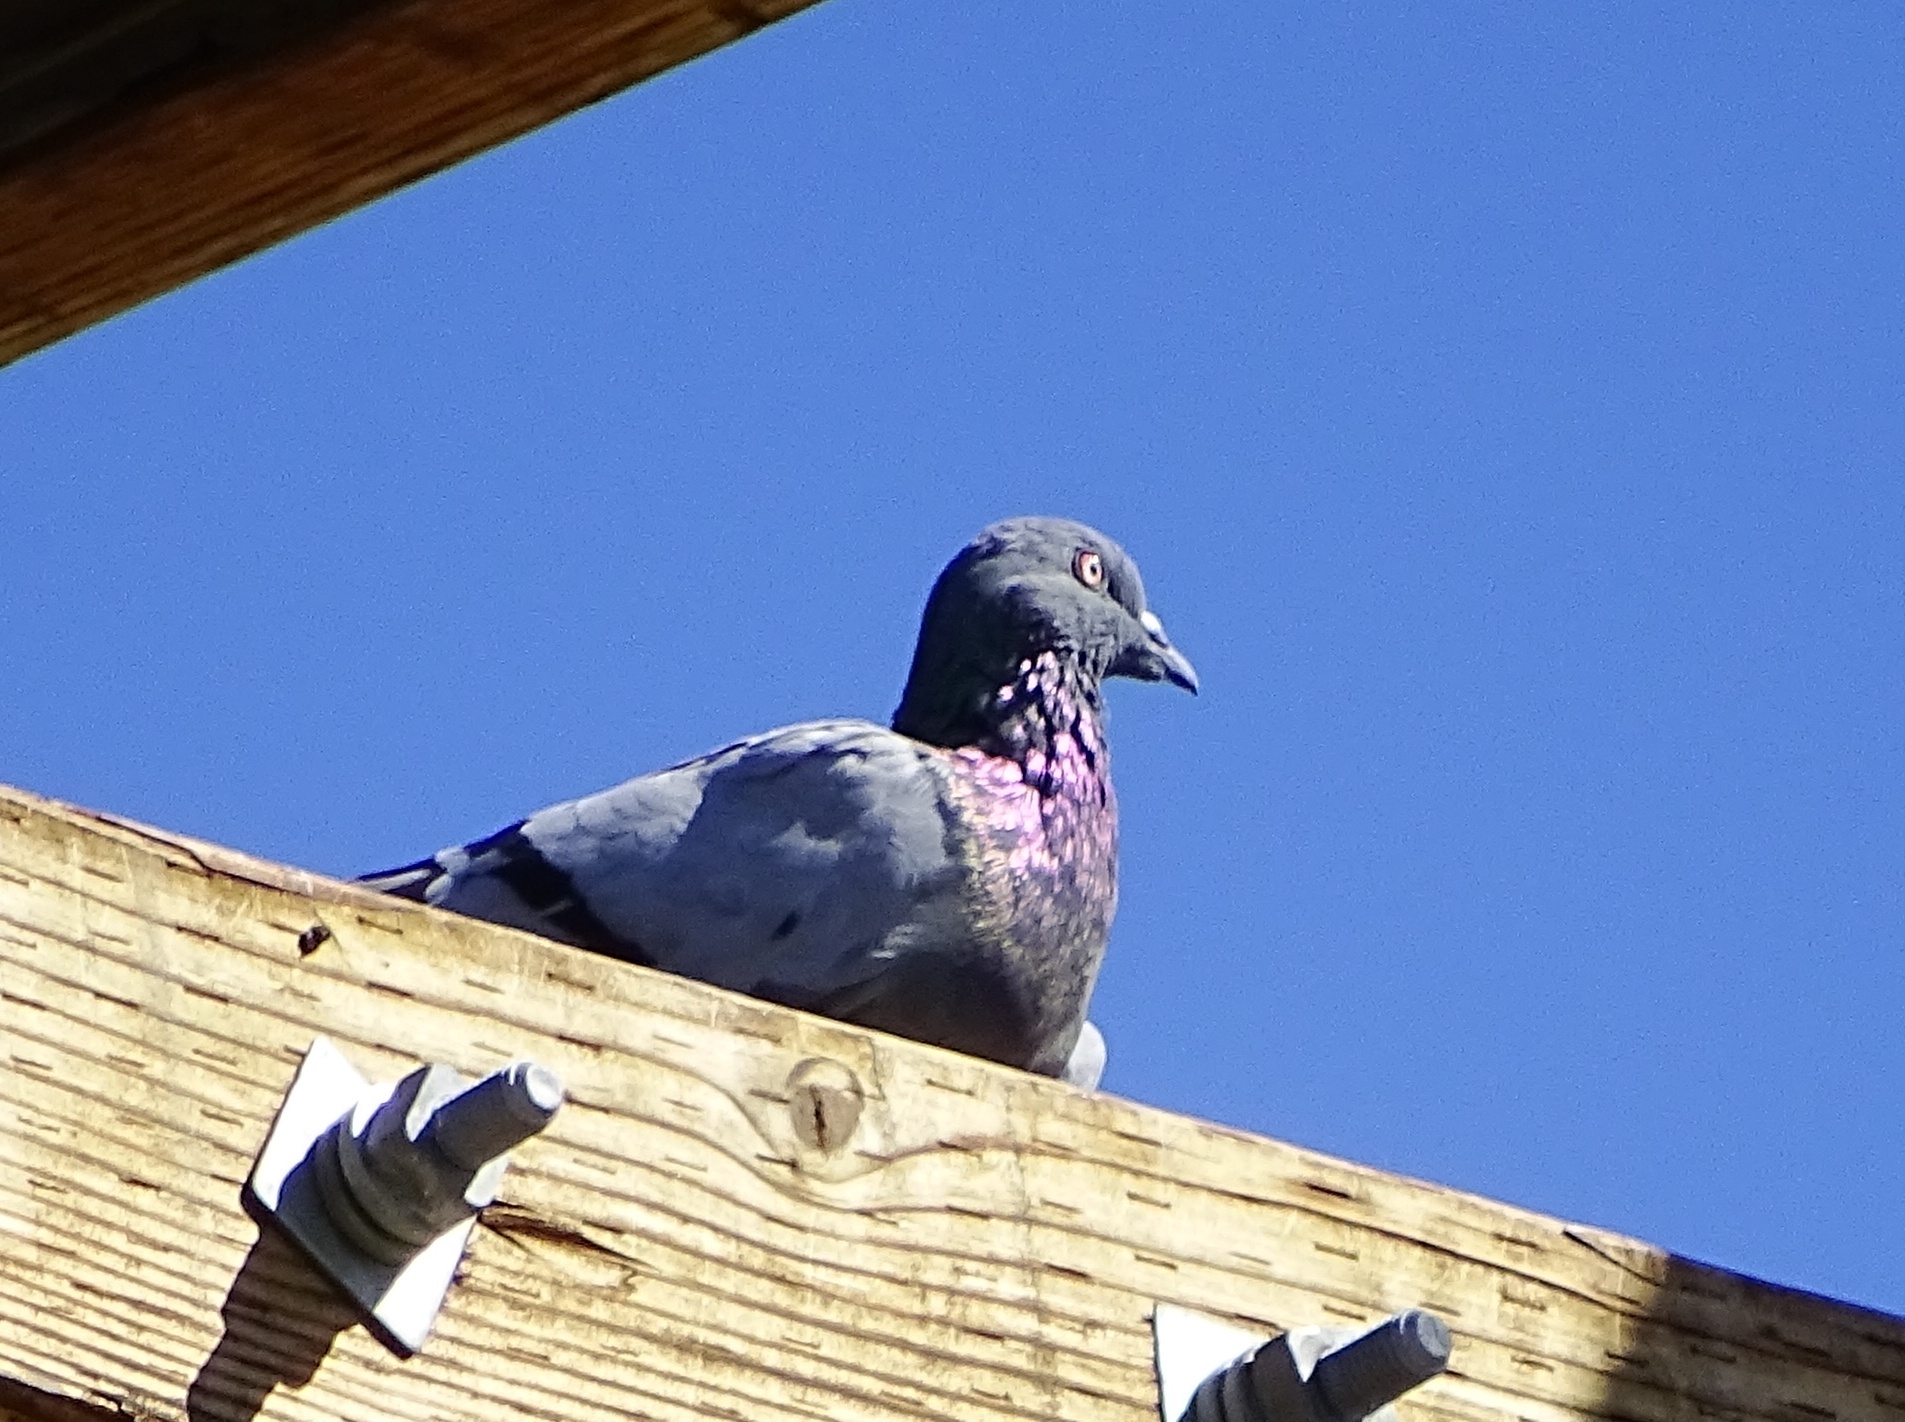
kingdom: Animalia
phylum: Chordata
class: Aves
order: Columbiformes
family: Columbidae
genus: Columba
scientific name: Columba livia
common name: Rock pigeon
